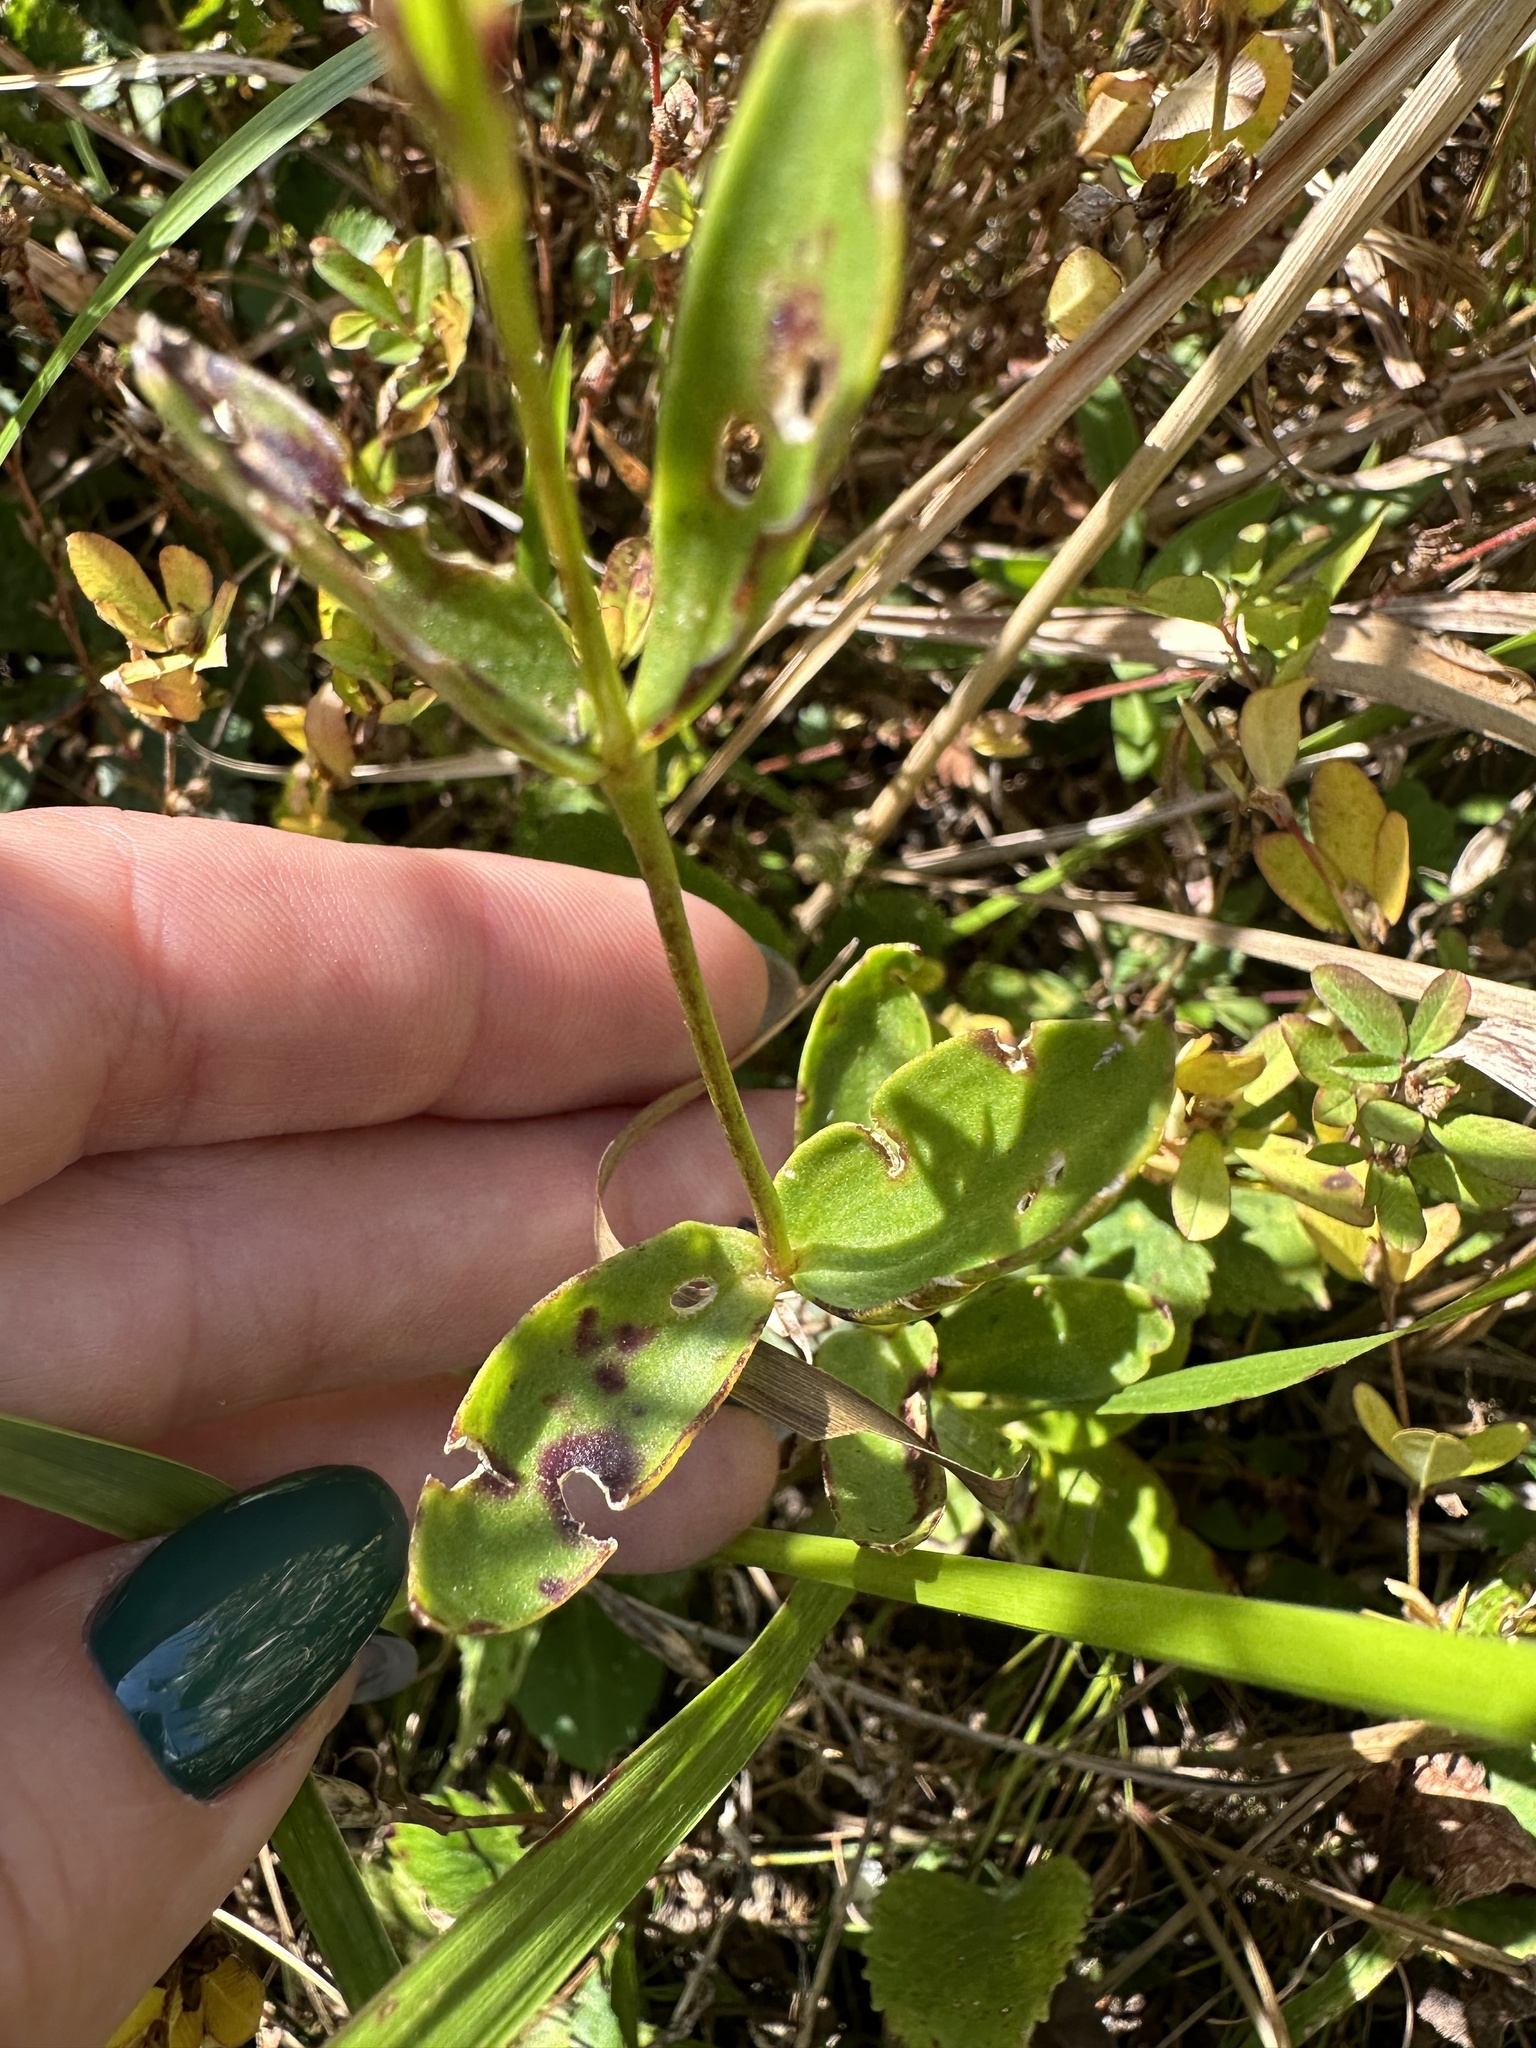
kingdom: Plantae
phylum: Tracheophyta
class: Magnoliopsida
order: Caryophyllales
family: Caryophyllaceae
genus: Gypsophila
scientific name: Gypsophila pacifica
